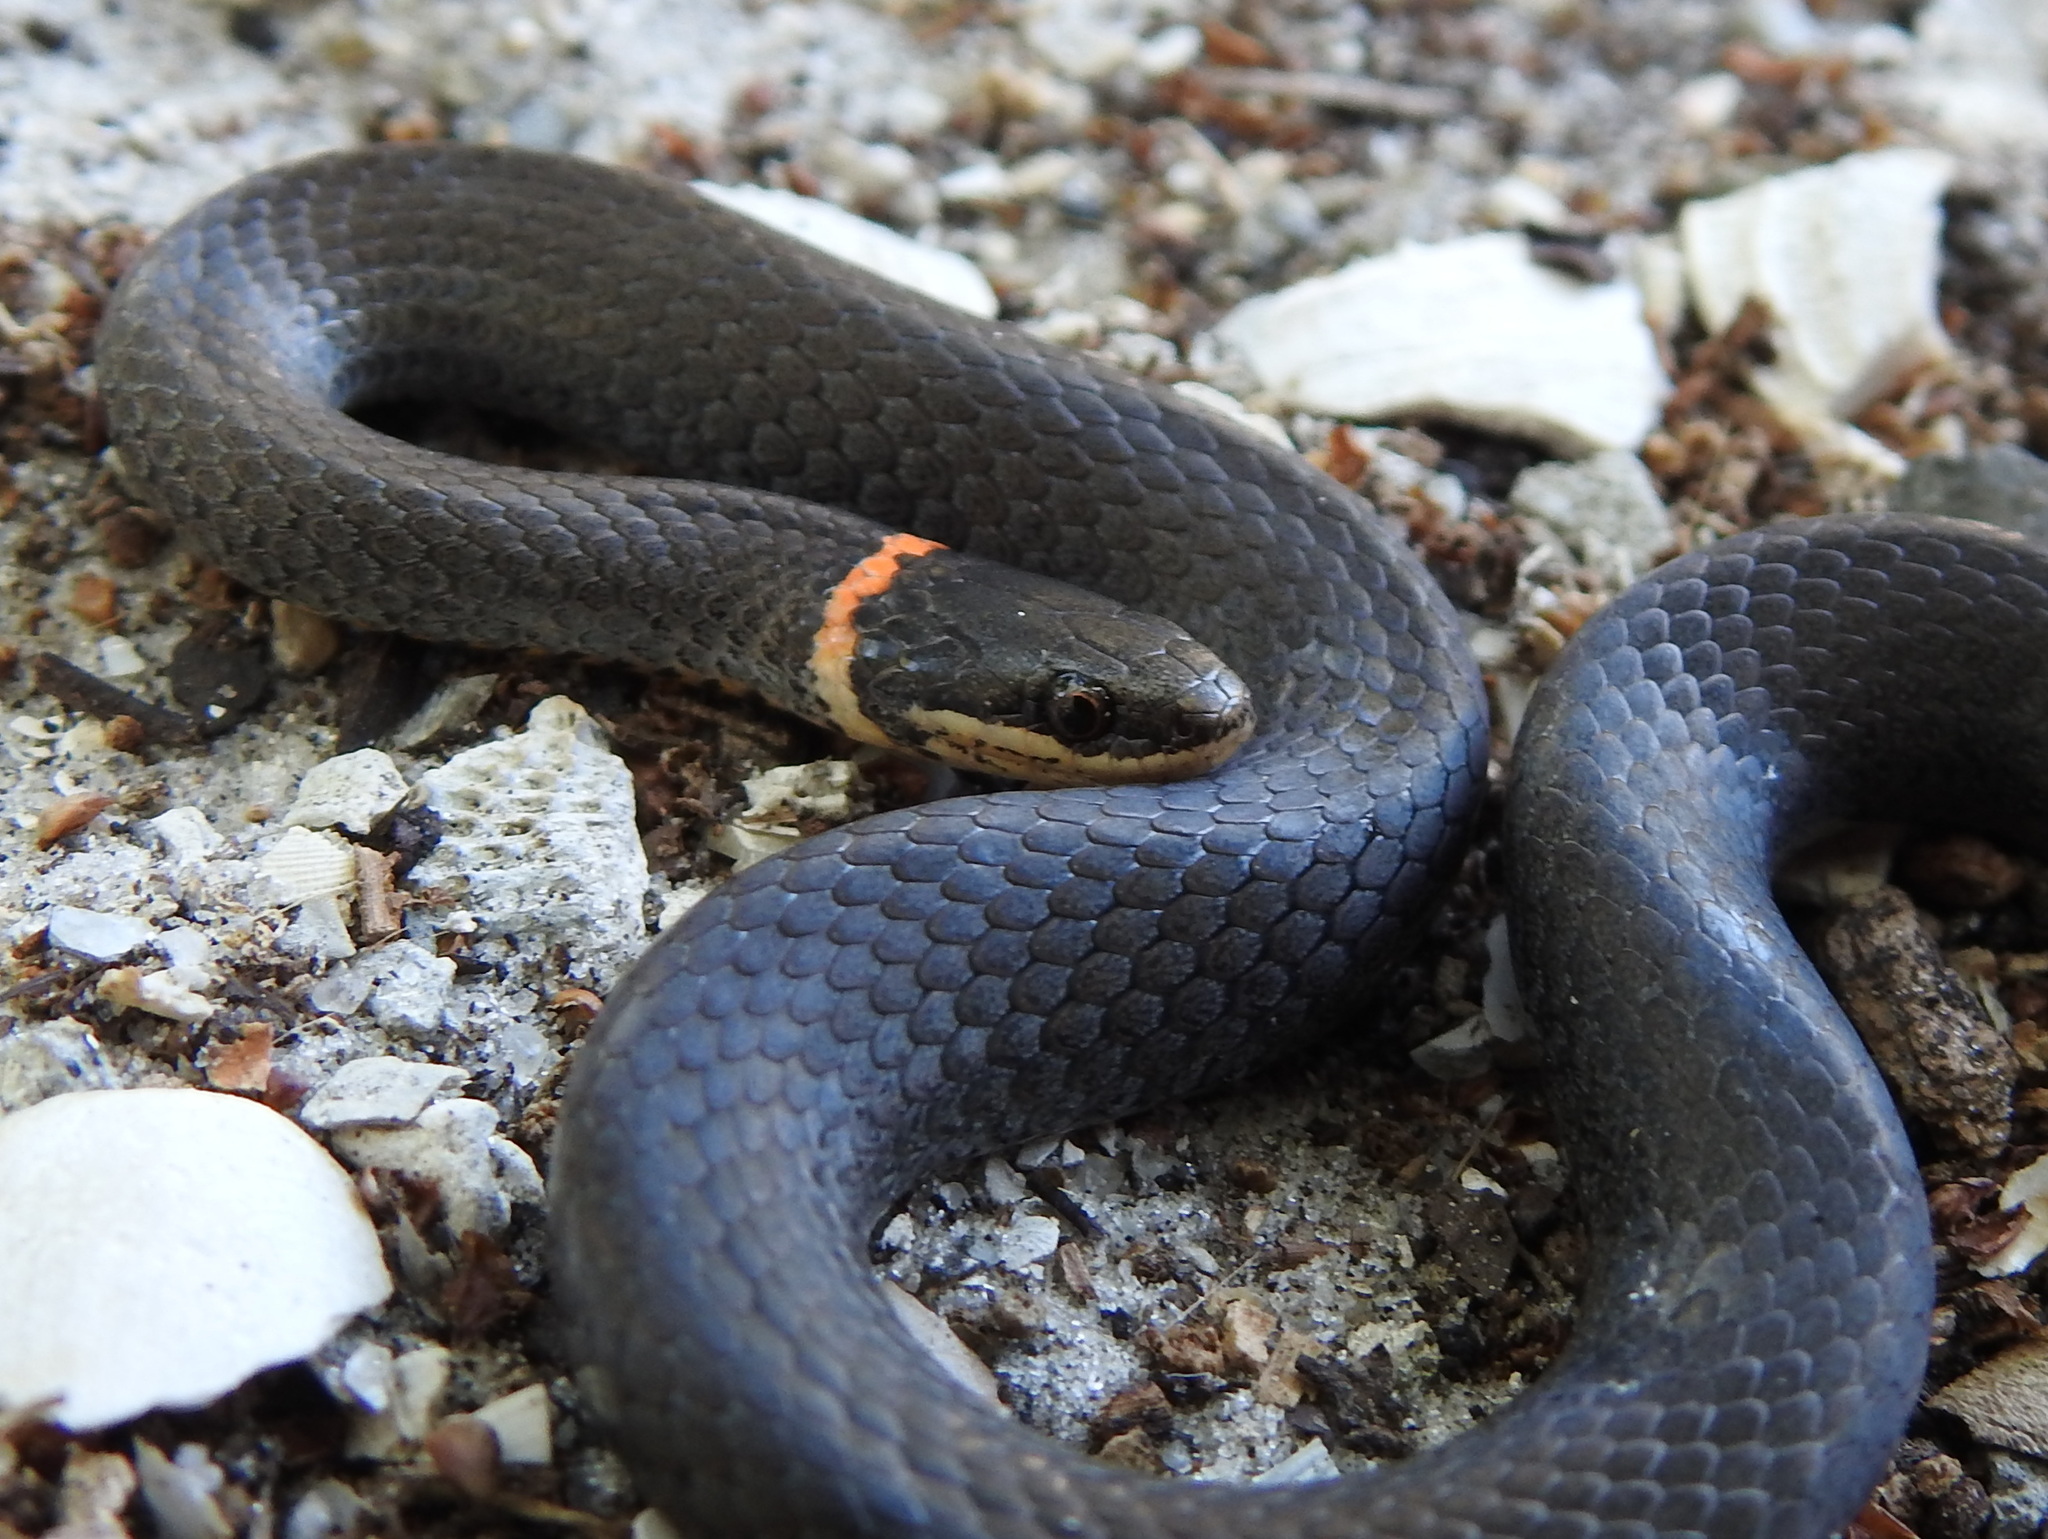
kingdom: Animalia
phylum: Chordata
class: Squamata
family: Colubridae
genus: Diadophis
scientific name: Diadophis punctatus
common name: Ringneck snake
